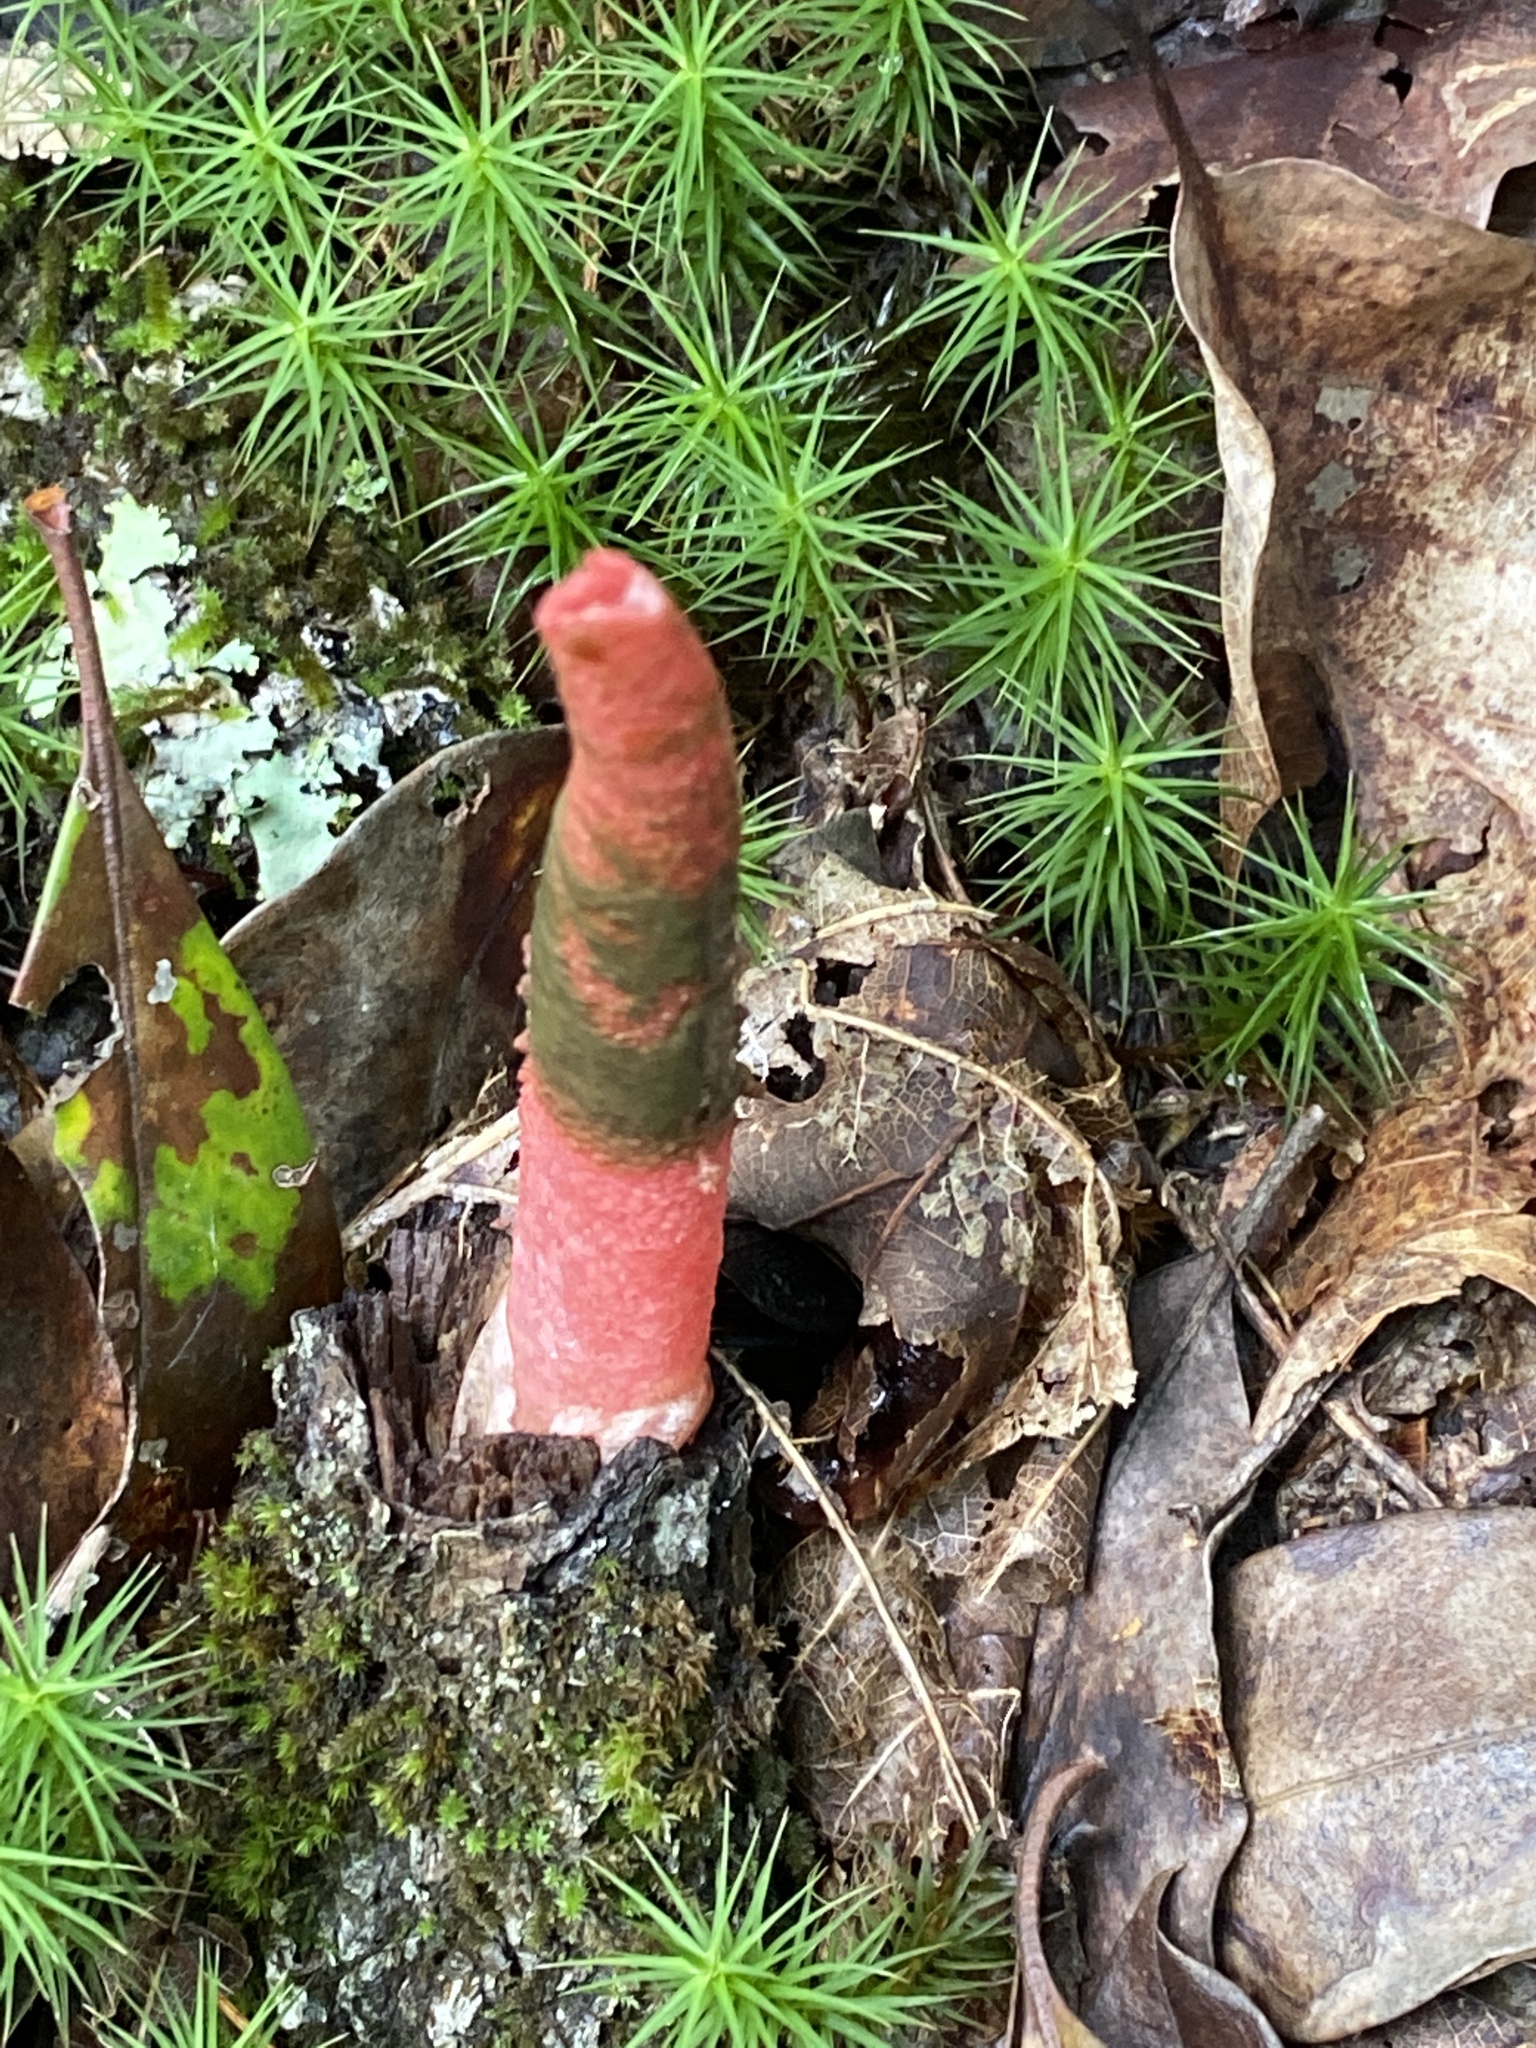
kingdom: Fungi
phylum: Basidiomycota
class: Agaricomycetes
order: Phallales
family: Phallaceae
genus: Mutinus
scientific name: Mutinus elegans
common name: Devil's dipstick
